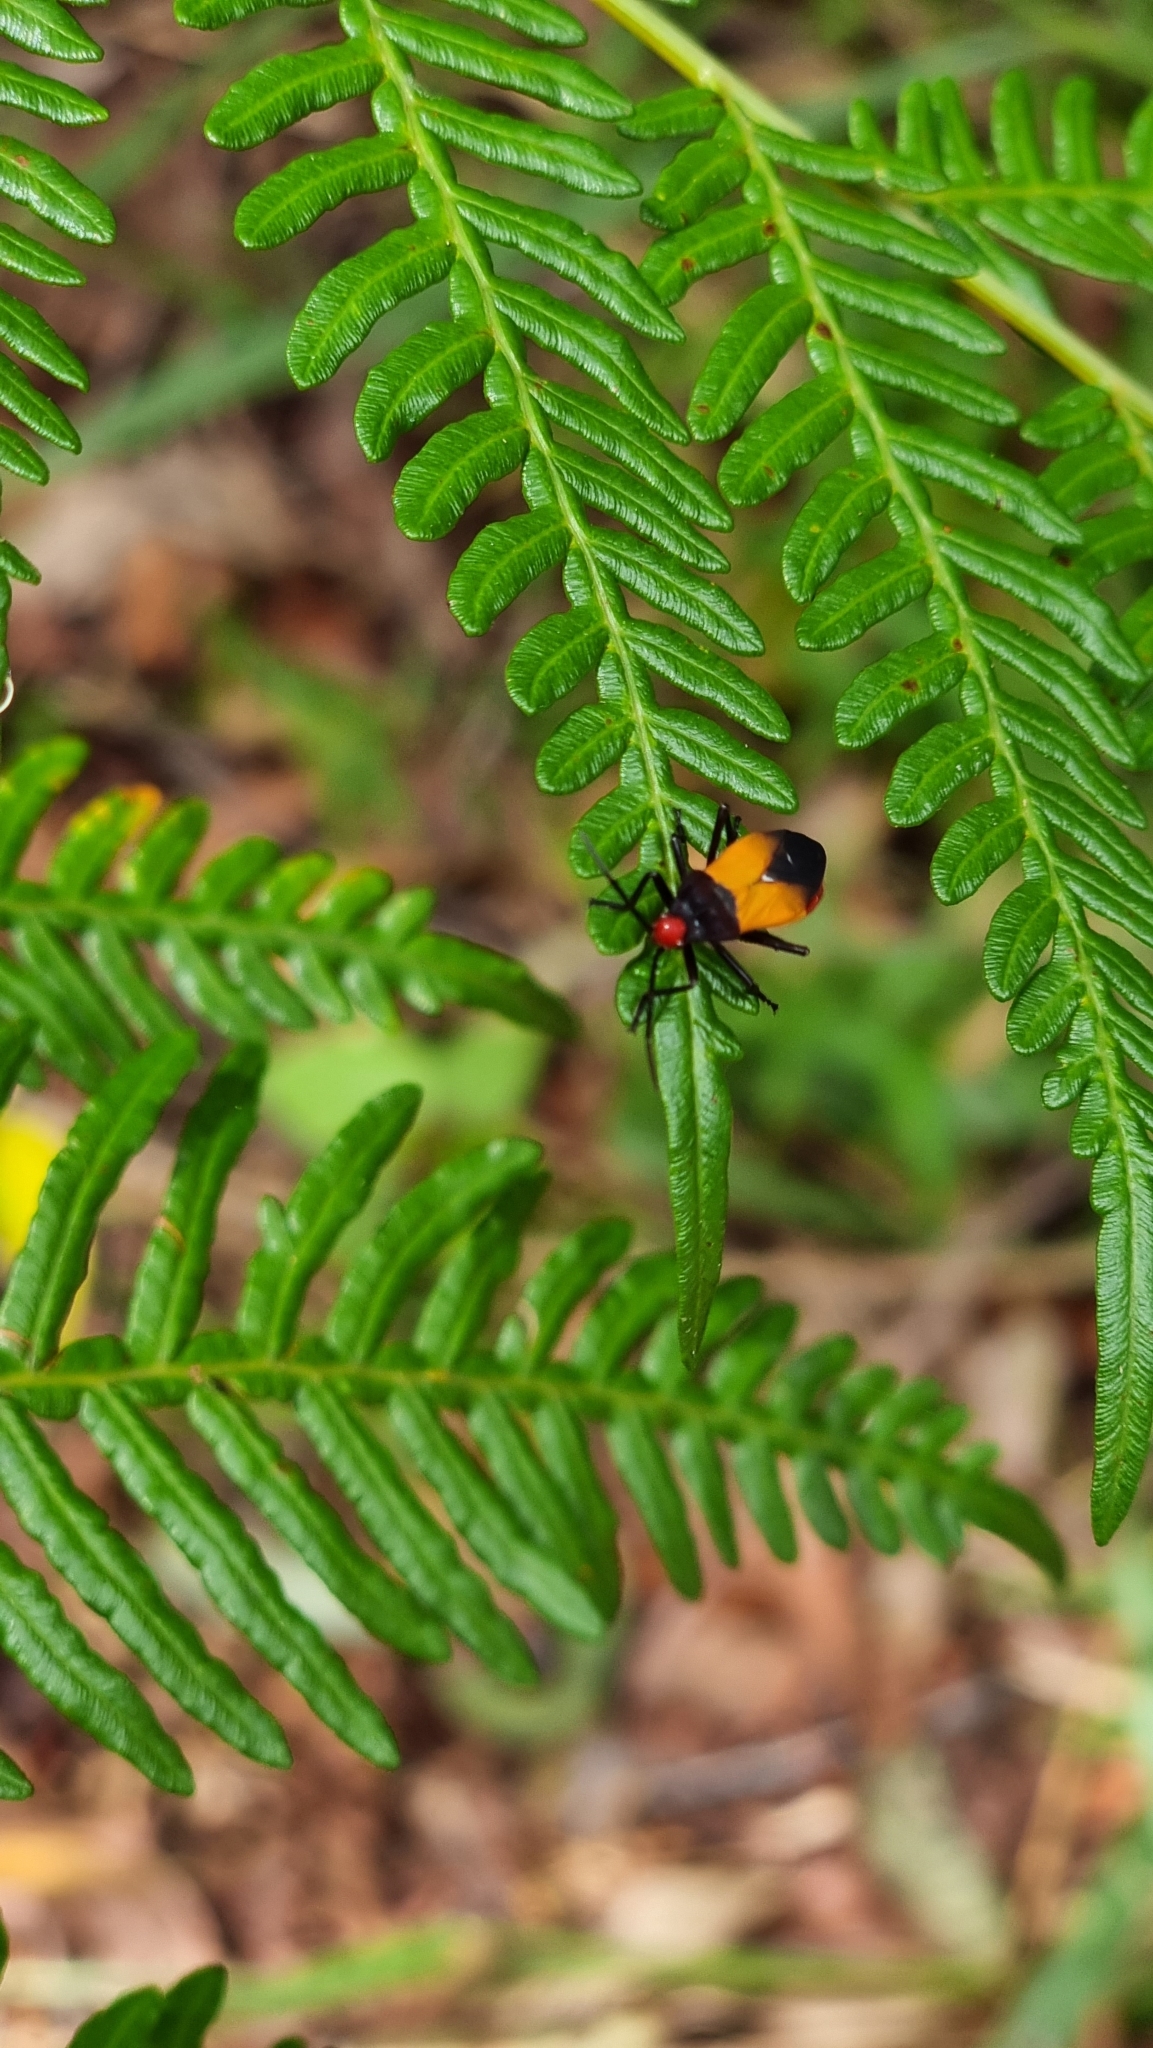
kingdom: Animalia
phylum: Arthropoda
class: Insecta
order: Hemiptera
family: Lygaeidae
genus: Oncopeltus
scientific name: Oncopeltus sordidus
